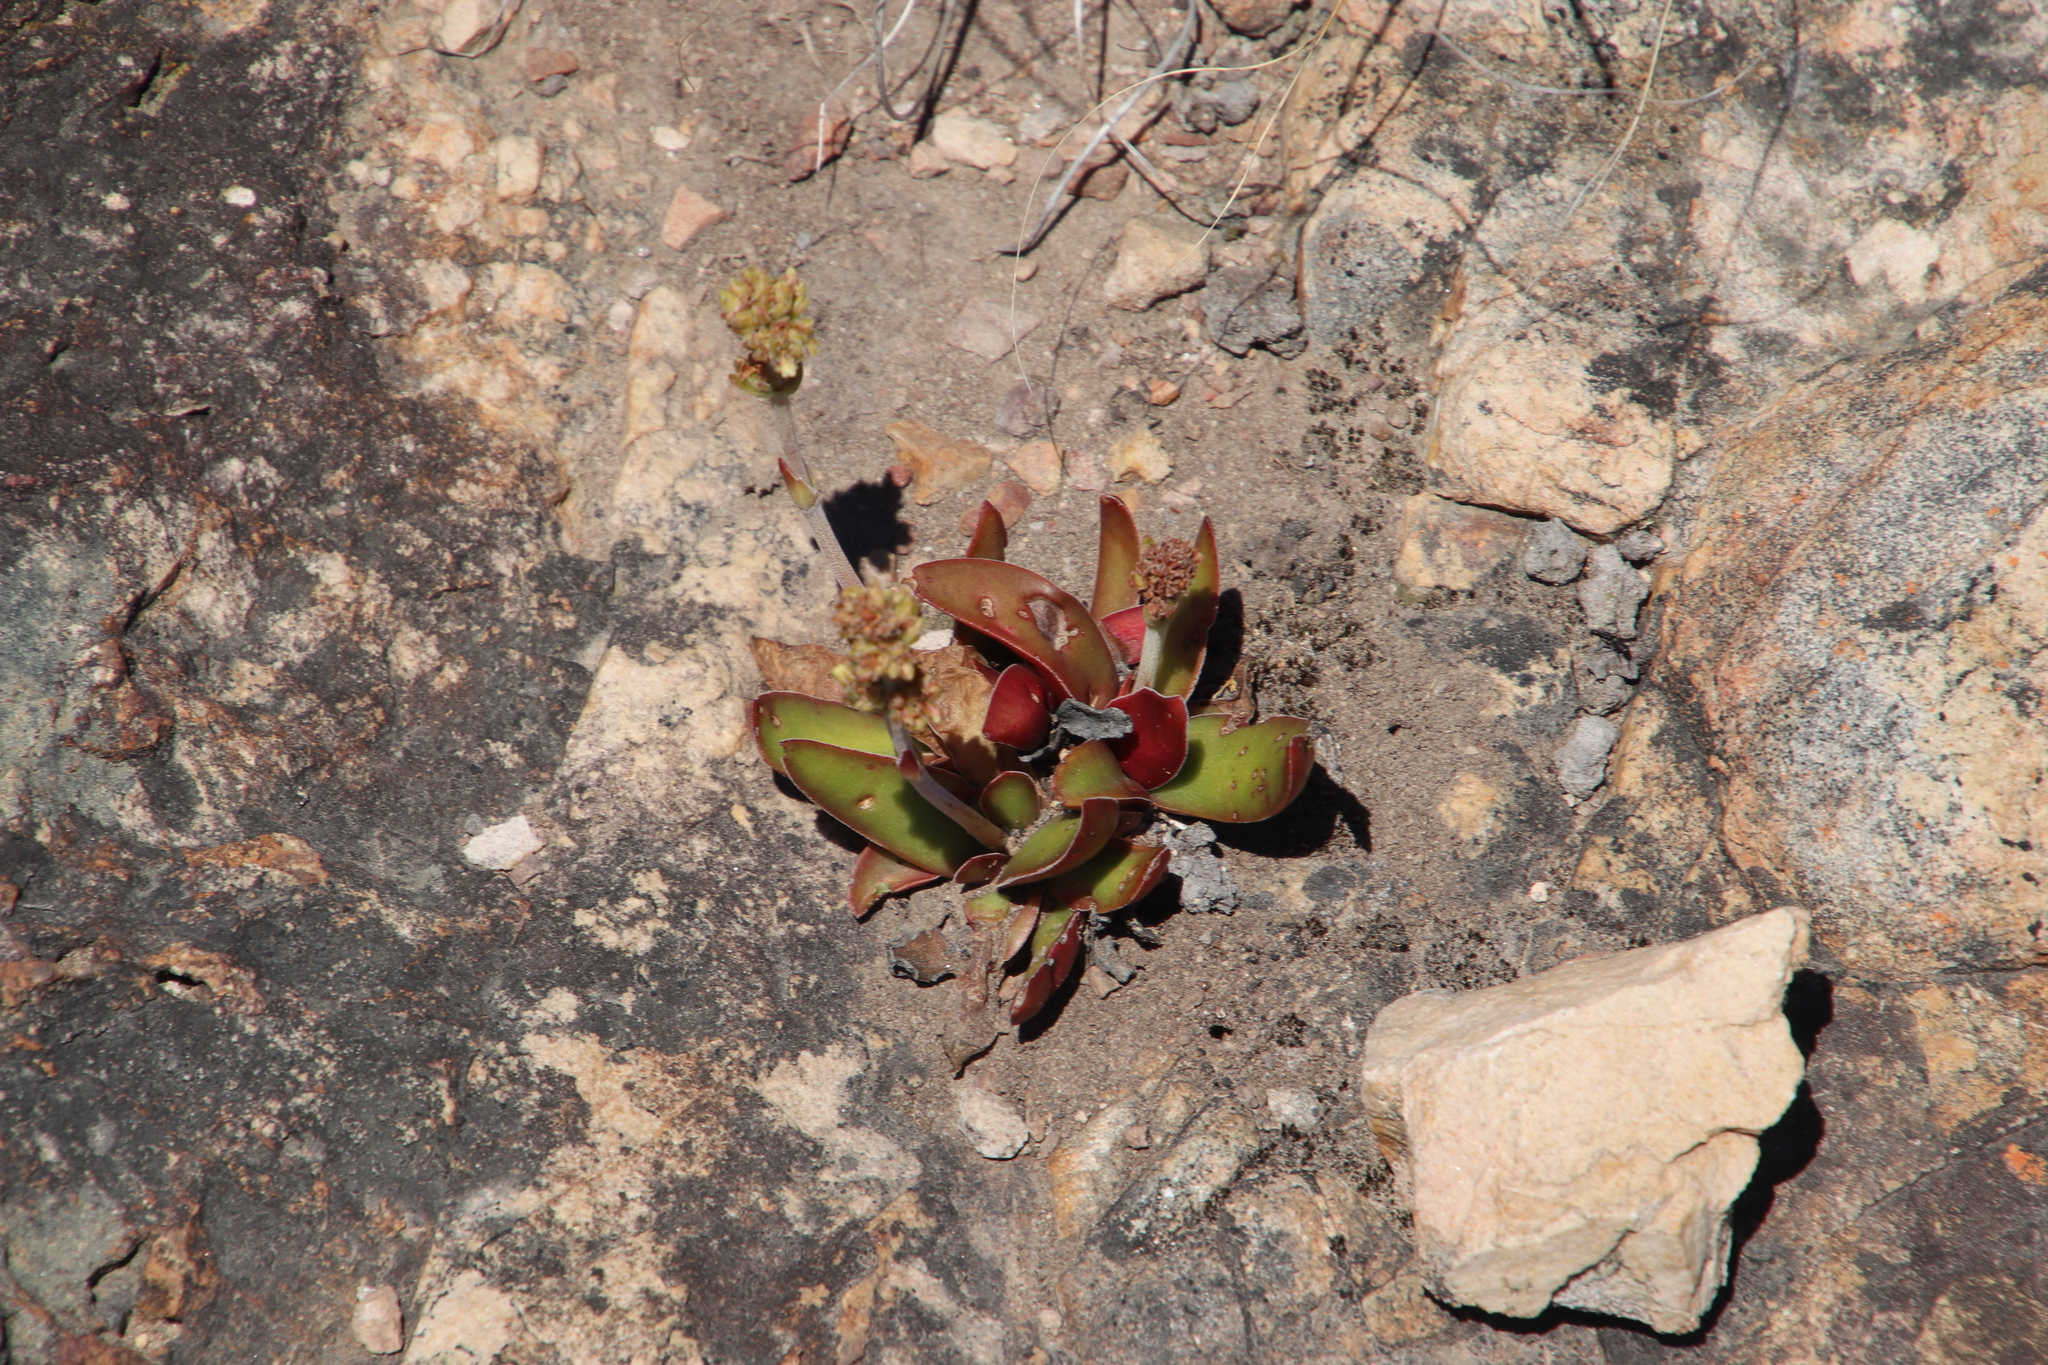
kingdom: Plantae
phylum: Tracheophyta
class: Magnoliopsida
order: Saxifragales
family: Crassulaceae
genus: Crassula
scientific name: Crassula nudicaulis
